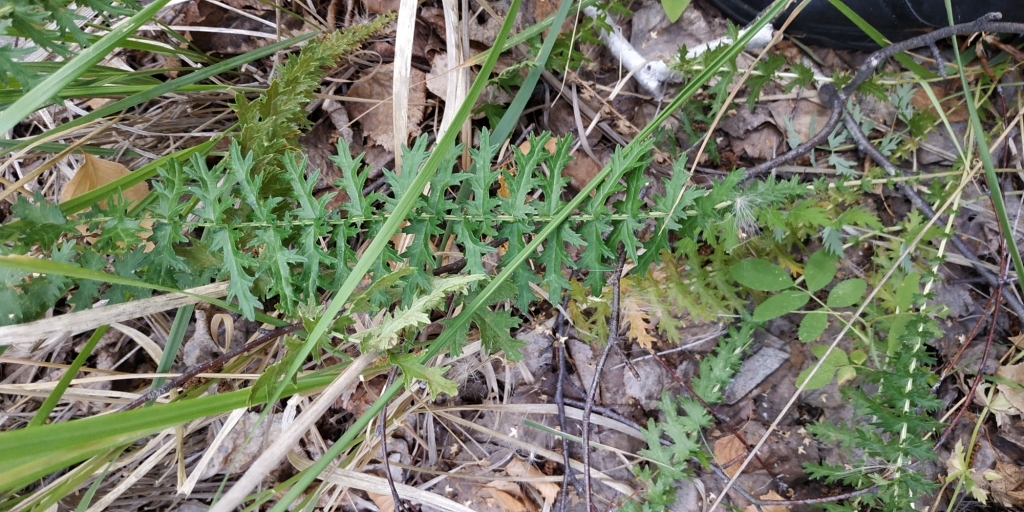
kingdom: Plantae
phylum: Tracheophyta
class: Magnoliopsida
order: Rosales
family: Rosaceae
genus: Filipendula
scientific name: Filipendula vulgaris
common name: Dropwort
